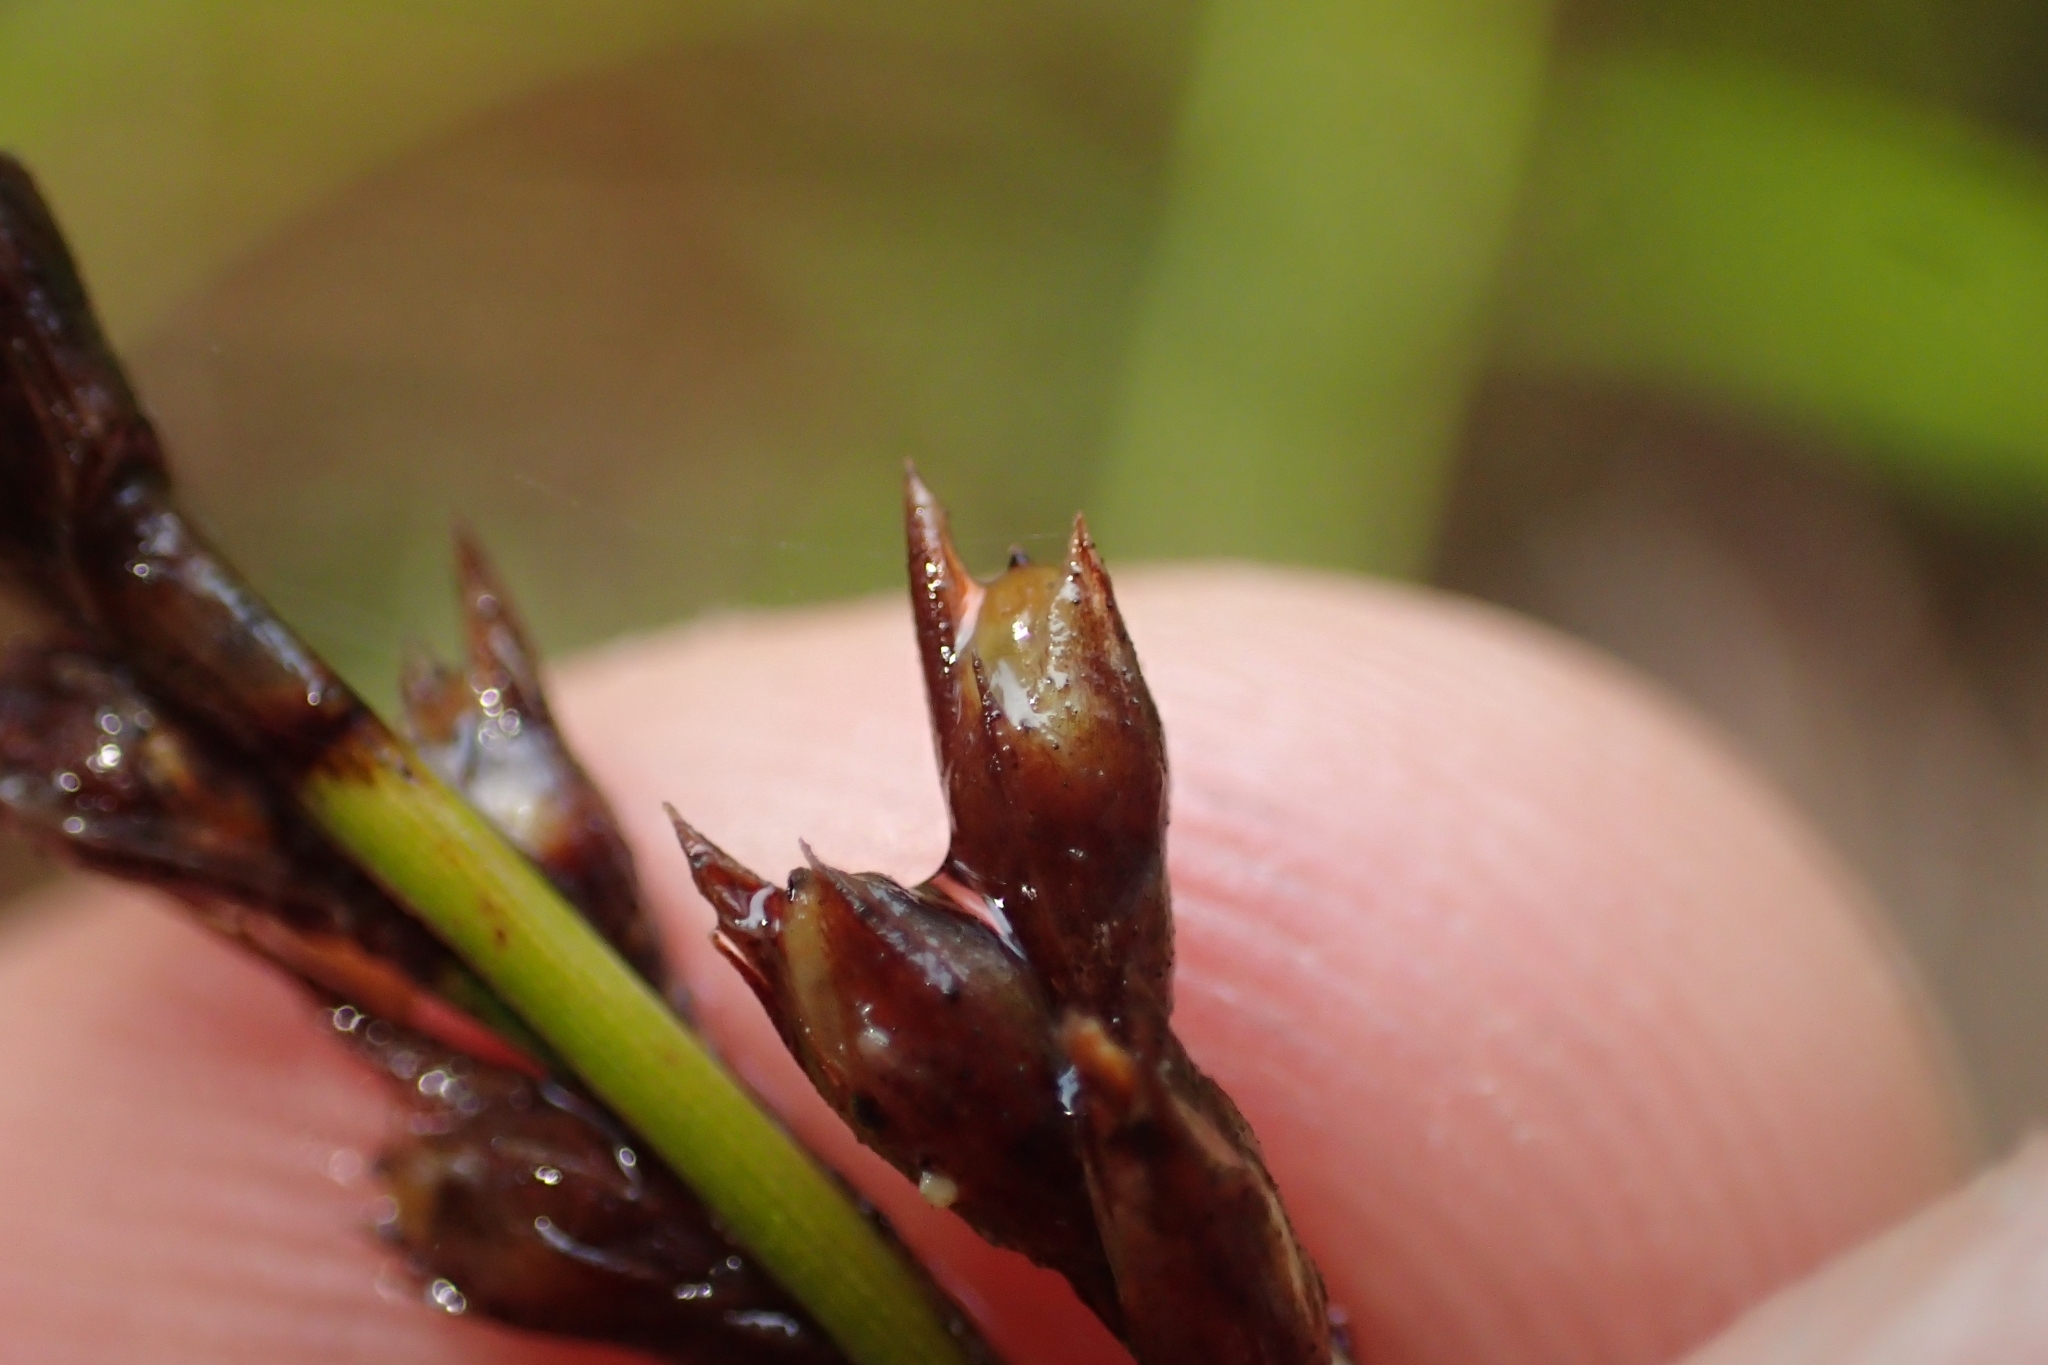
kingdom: Plantae
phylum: Tracheophyta
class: Liliopsida
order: Poales
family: Cyperaceae
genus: Lepidosperma
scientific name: Lepidosperma laterale
